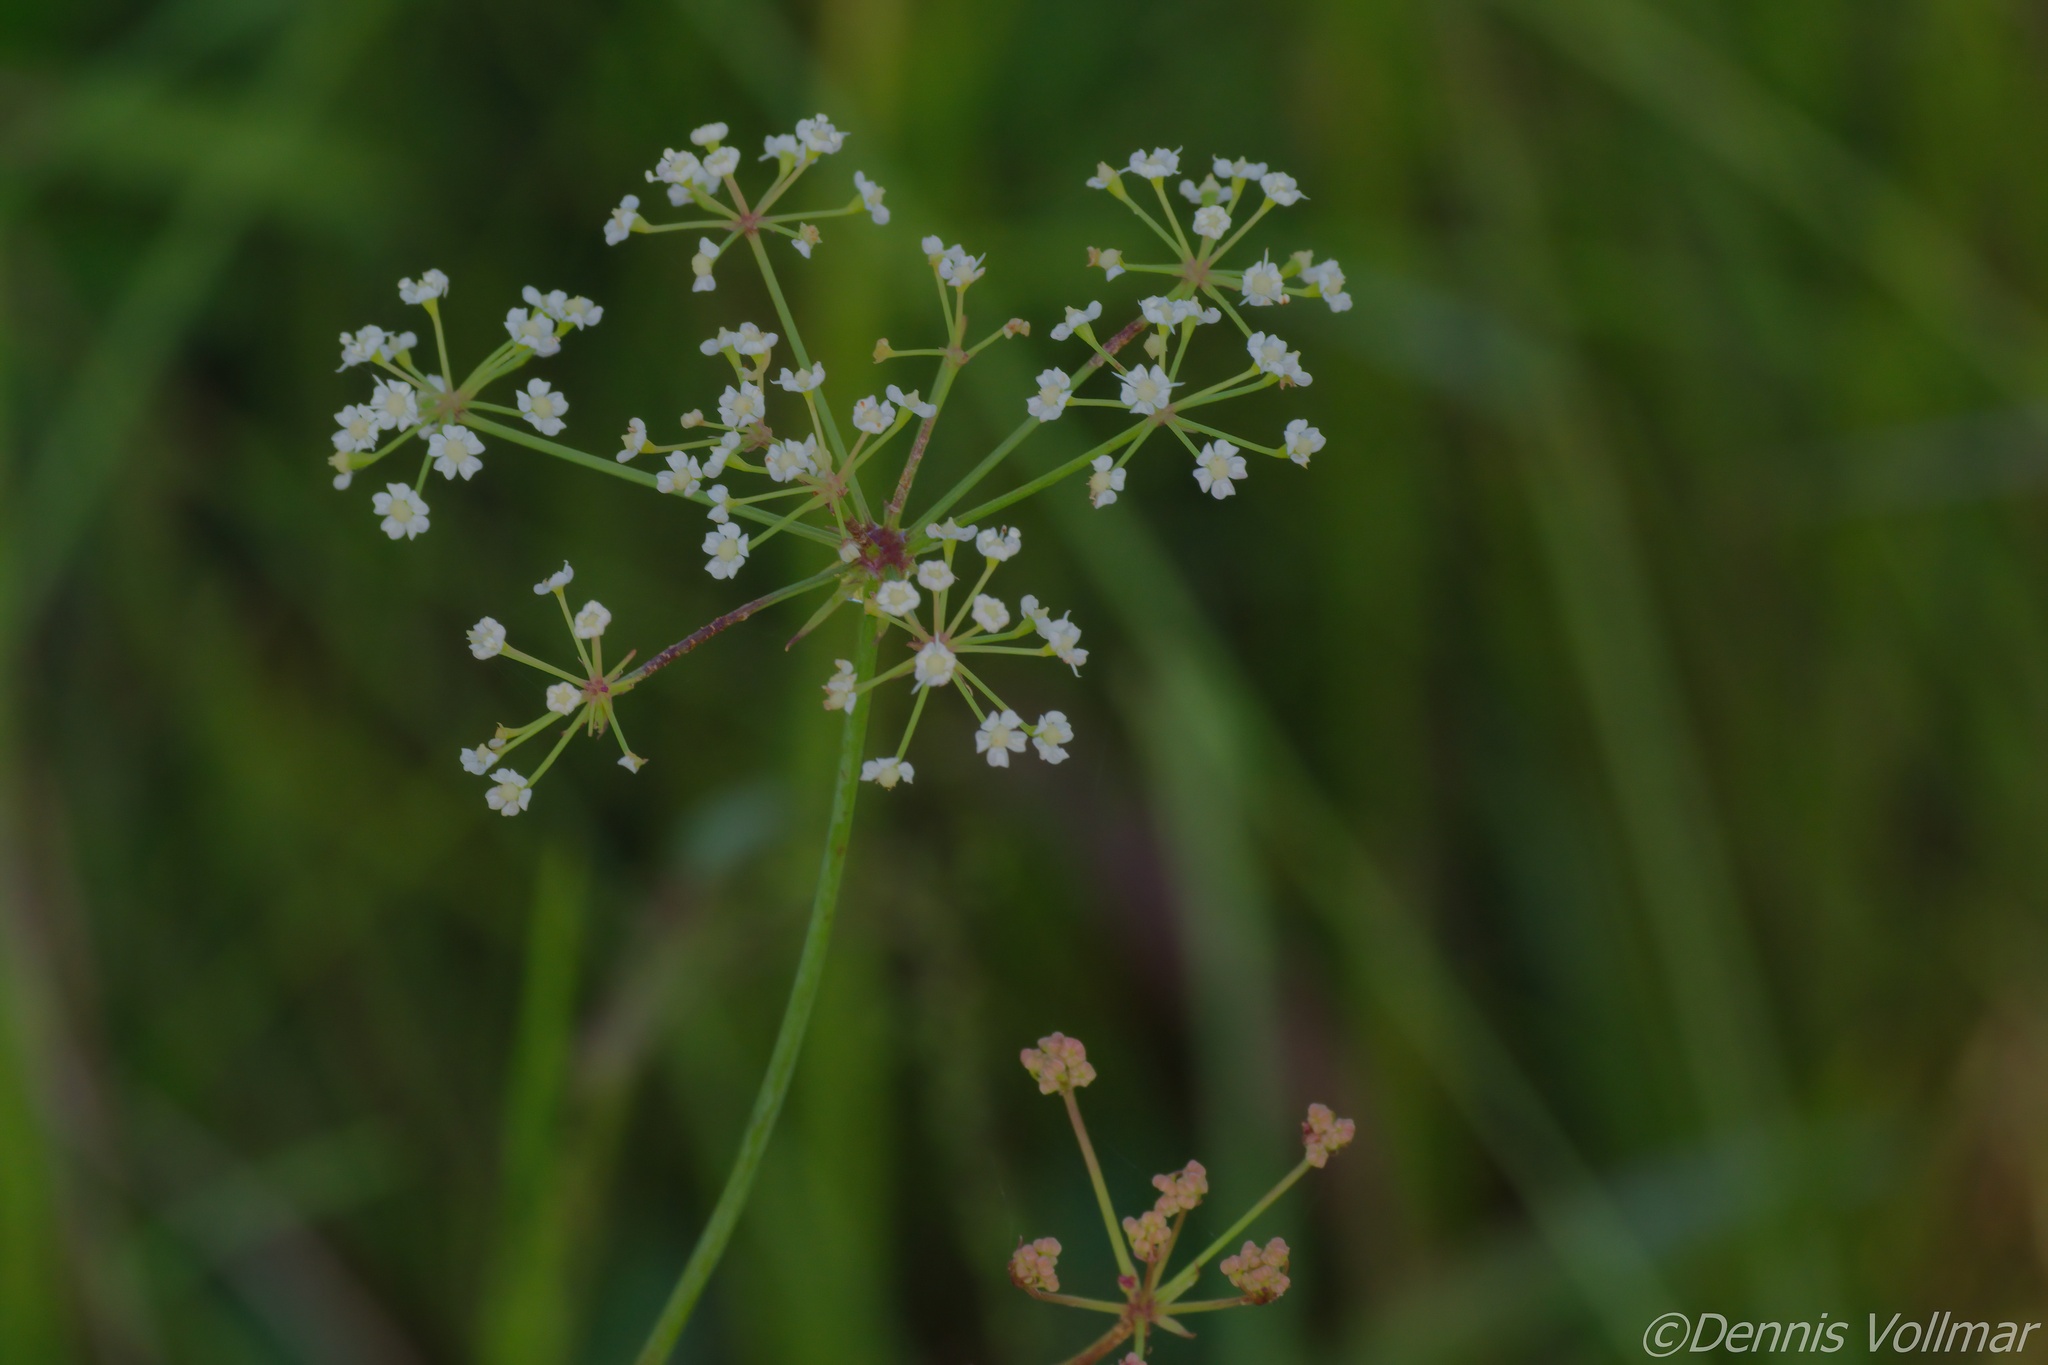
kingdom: Plantae
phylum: Tracheophyta
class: Magnoliopsida
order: Apiales
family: Apiaceae
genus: Tiedemannia
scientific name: Tiedemannia filiformis
